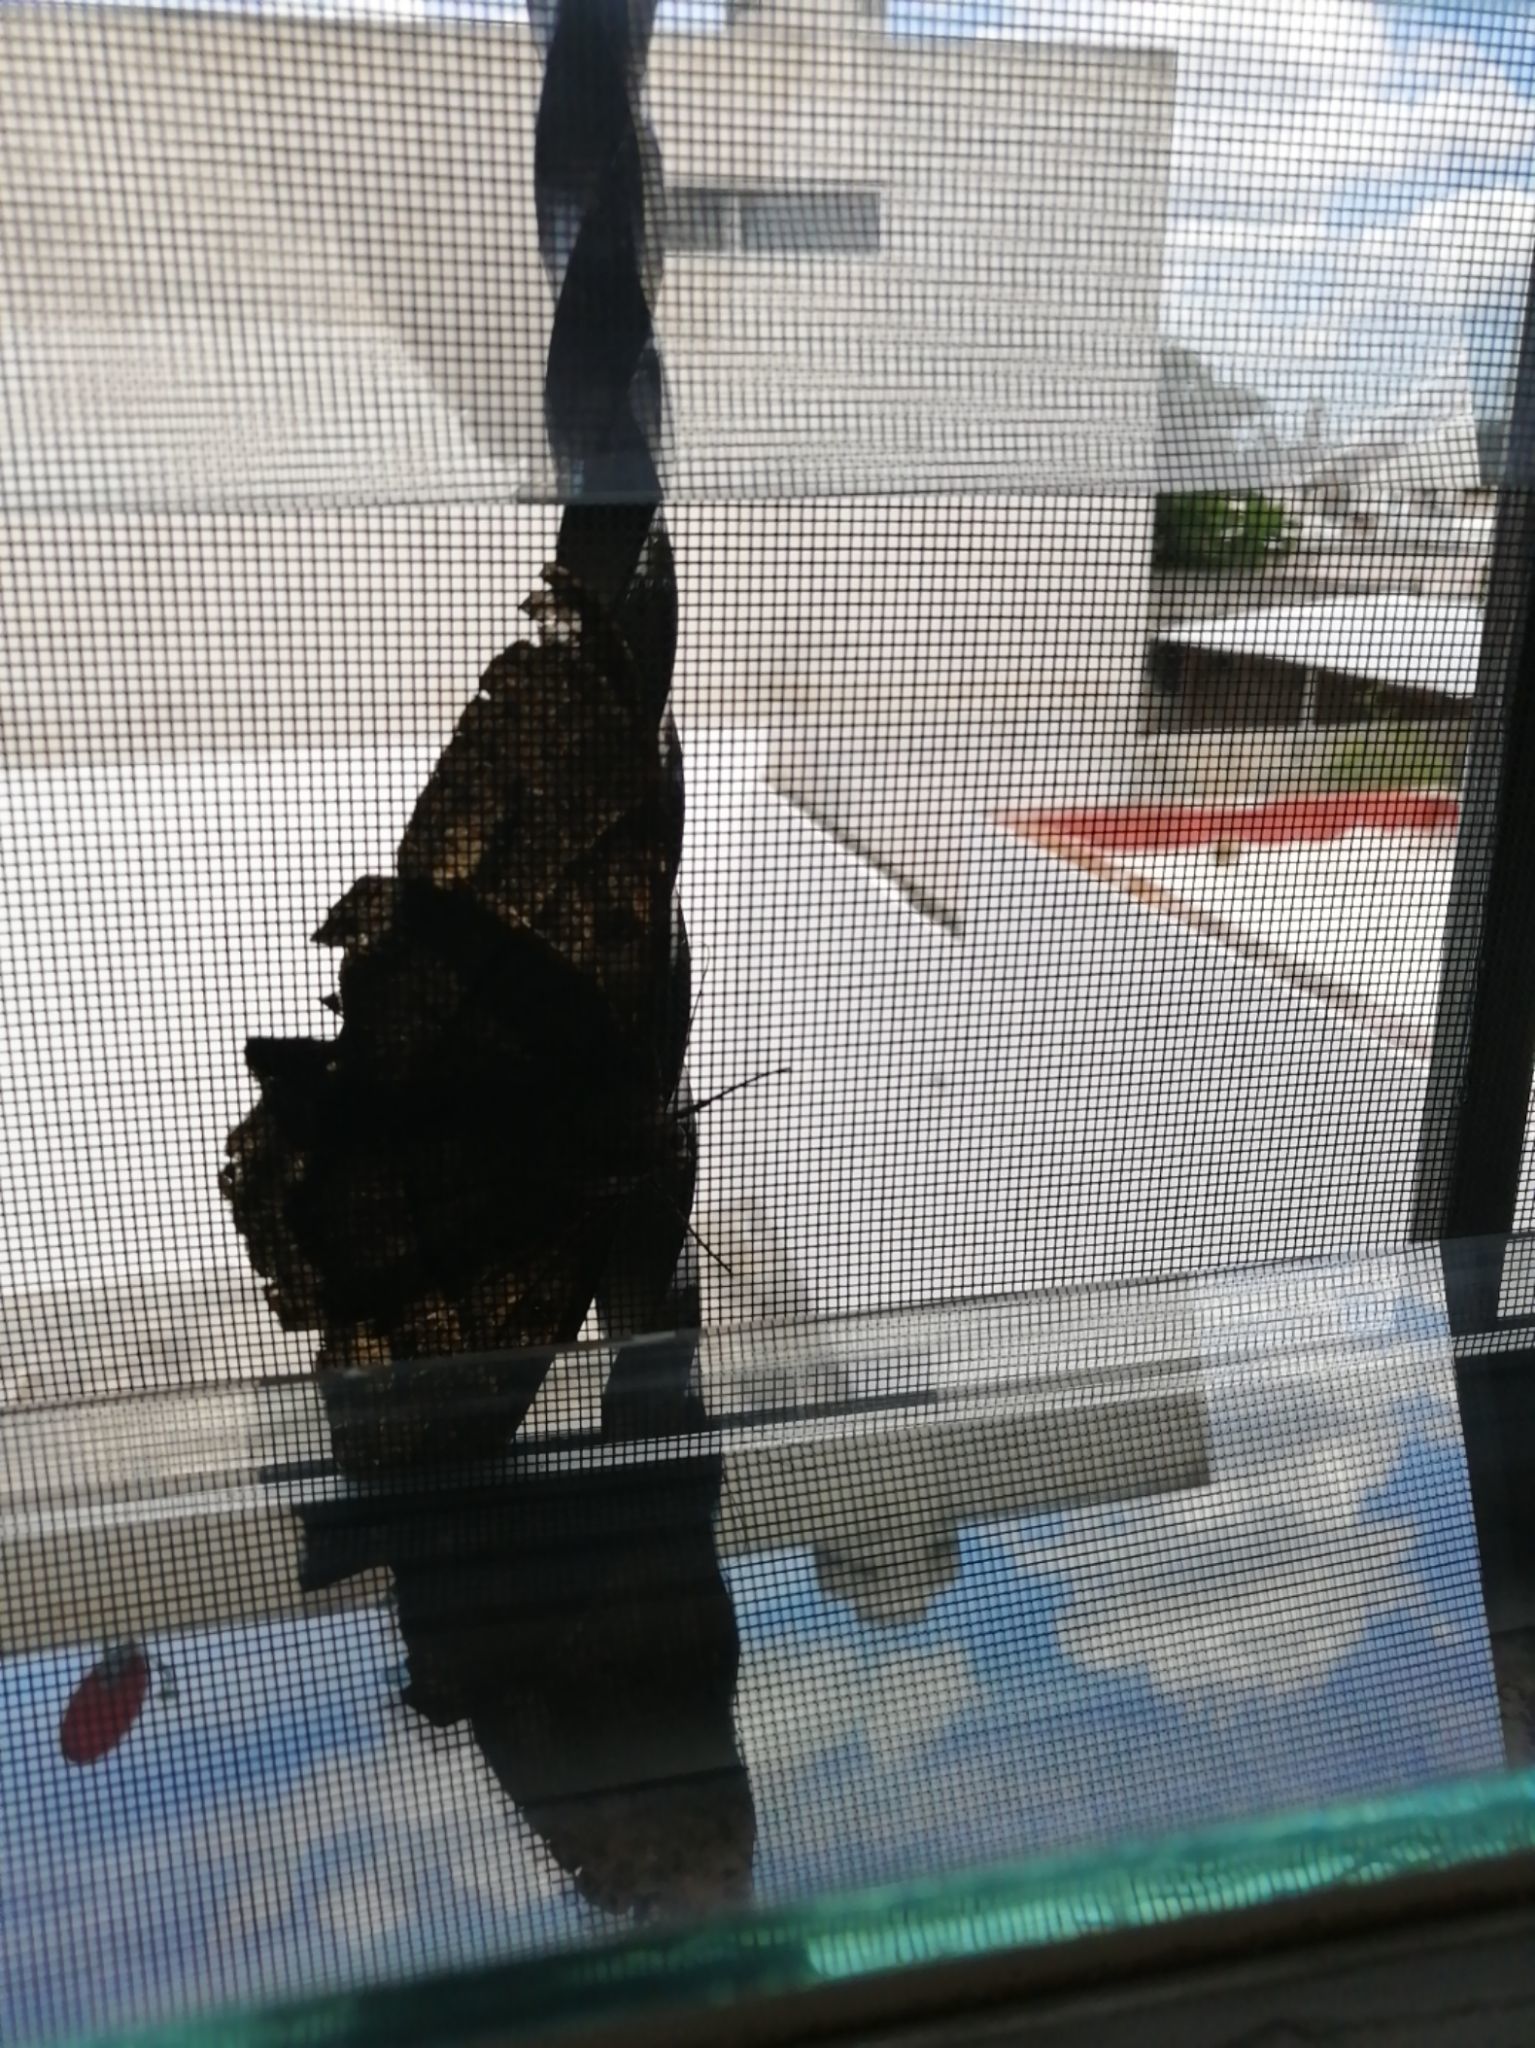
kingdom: Animalia
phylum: Arthropoda
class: Insecta
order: Lepidoptera
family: Erebidae
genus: Ascalapha
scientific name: Ascalapha odorata
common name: Black witch
